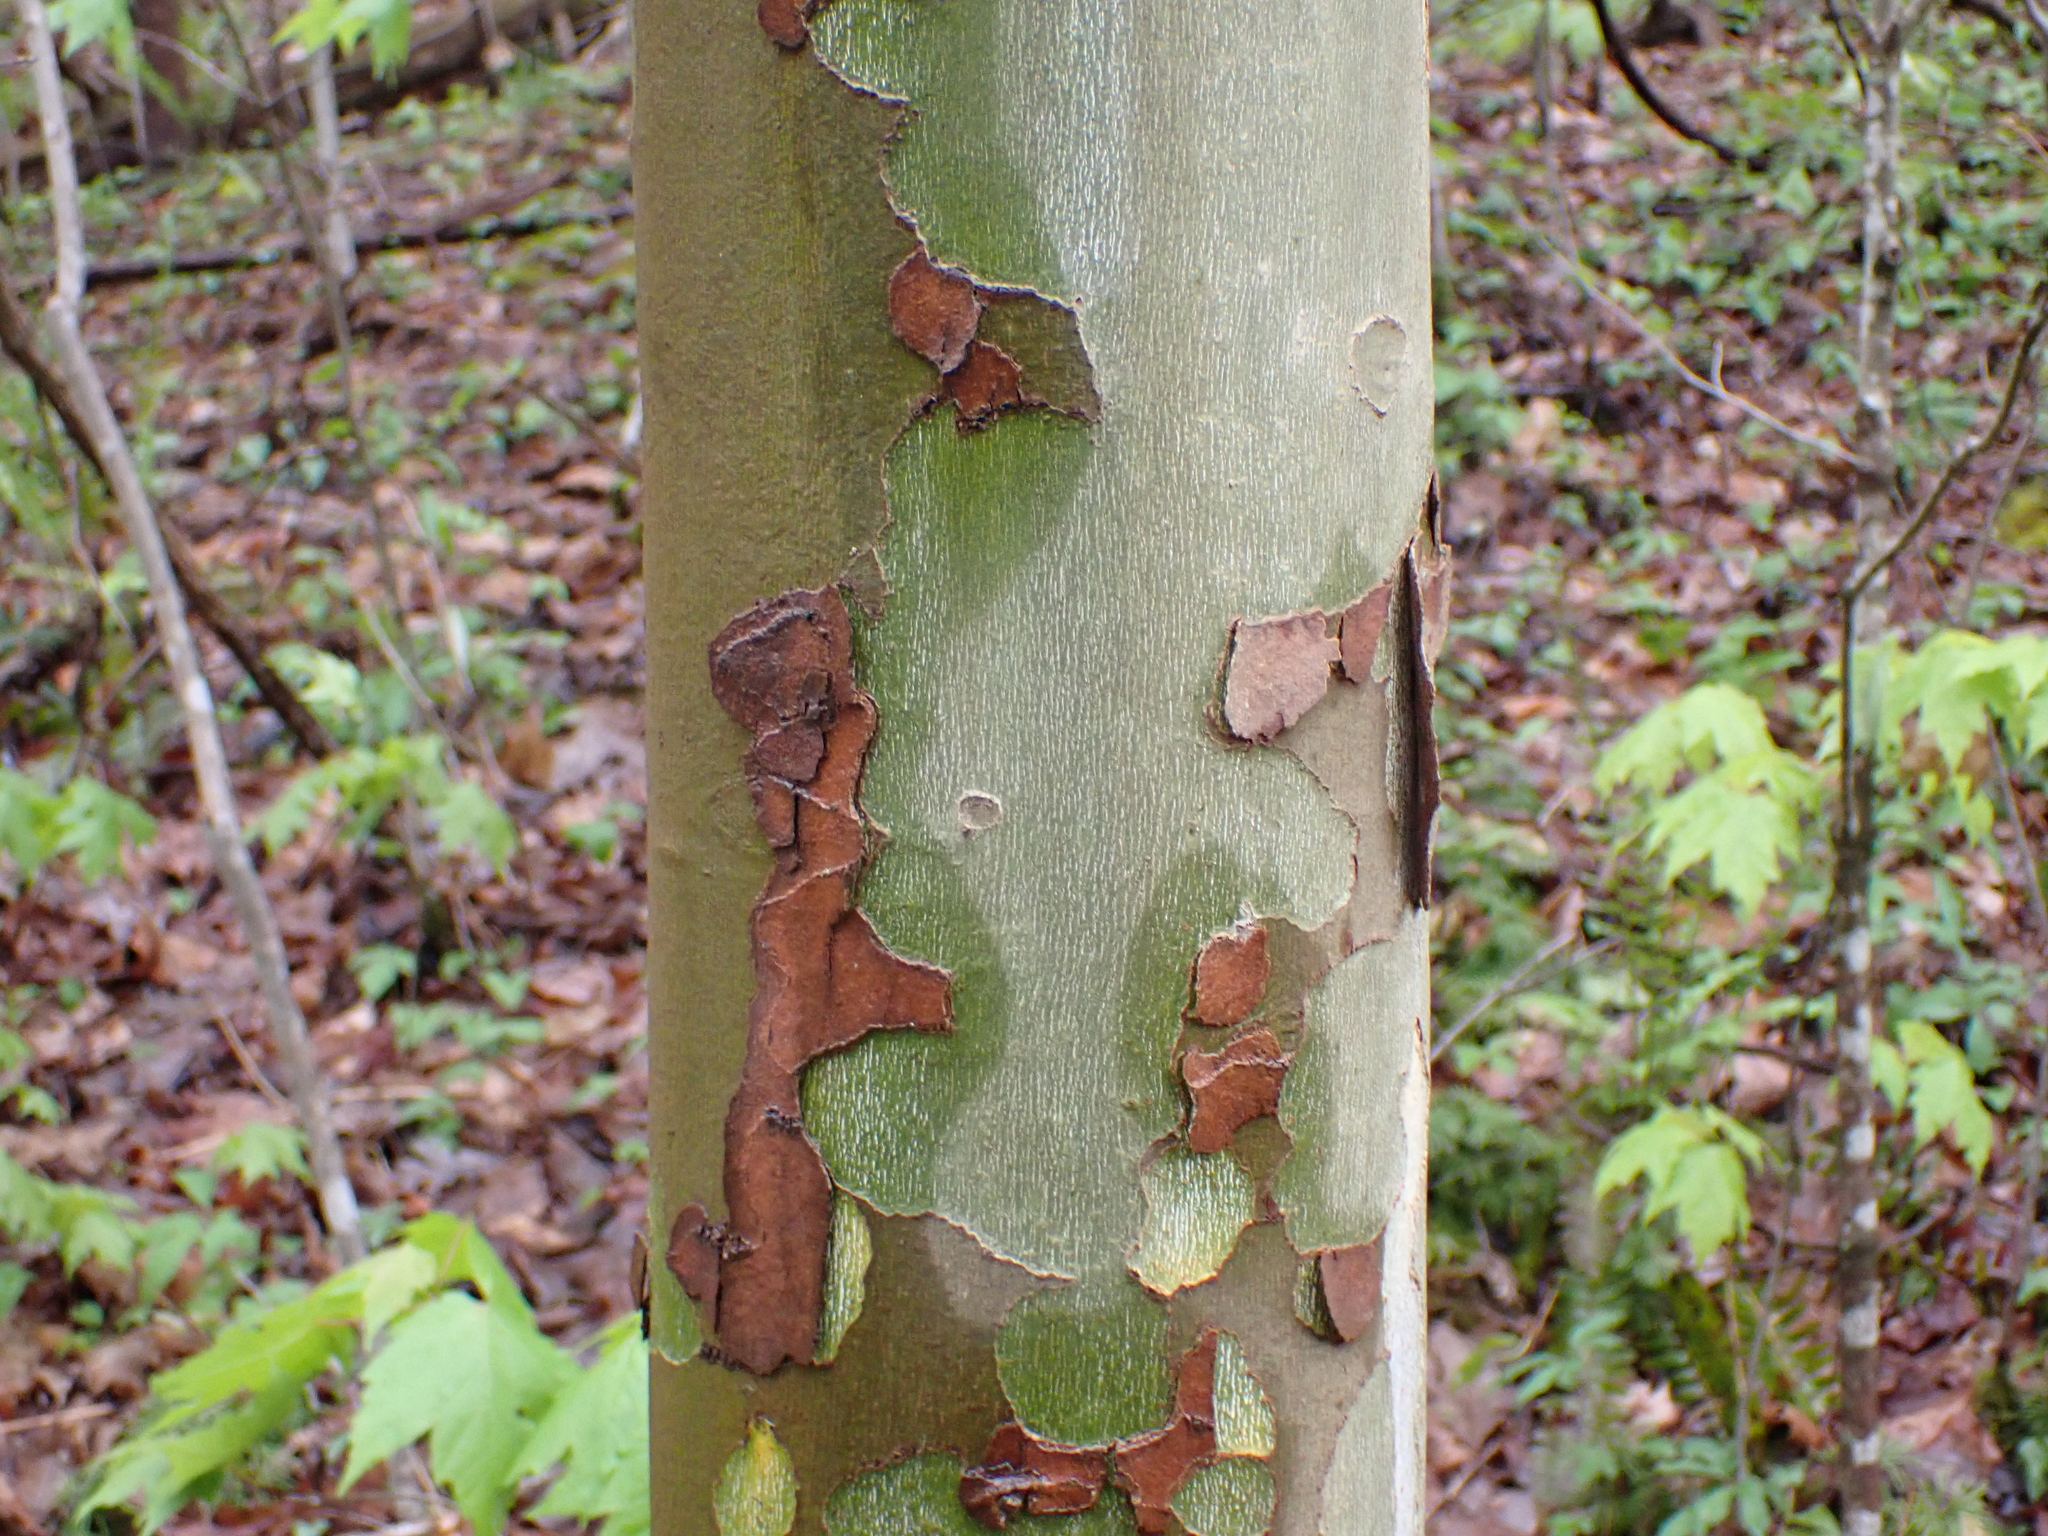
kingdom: Plantae
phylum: Tracheophyta
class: Magnoliopsida
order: Proteales
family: Platanaceae
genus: Platanus
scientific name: Platanus occidentalis
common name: American sycamore
